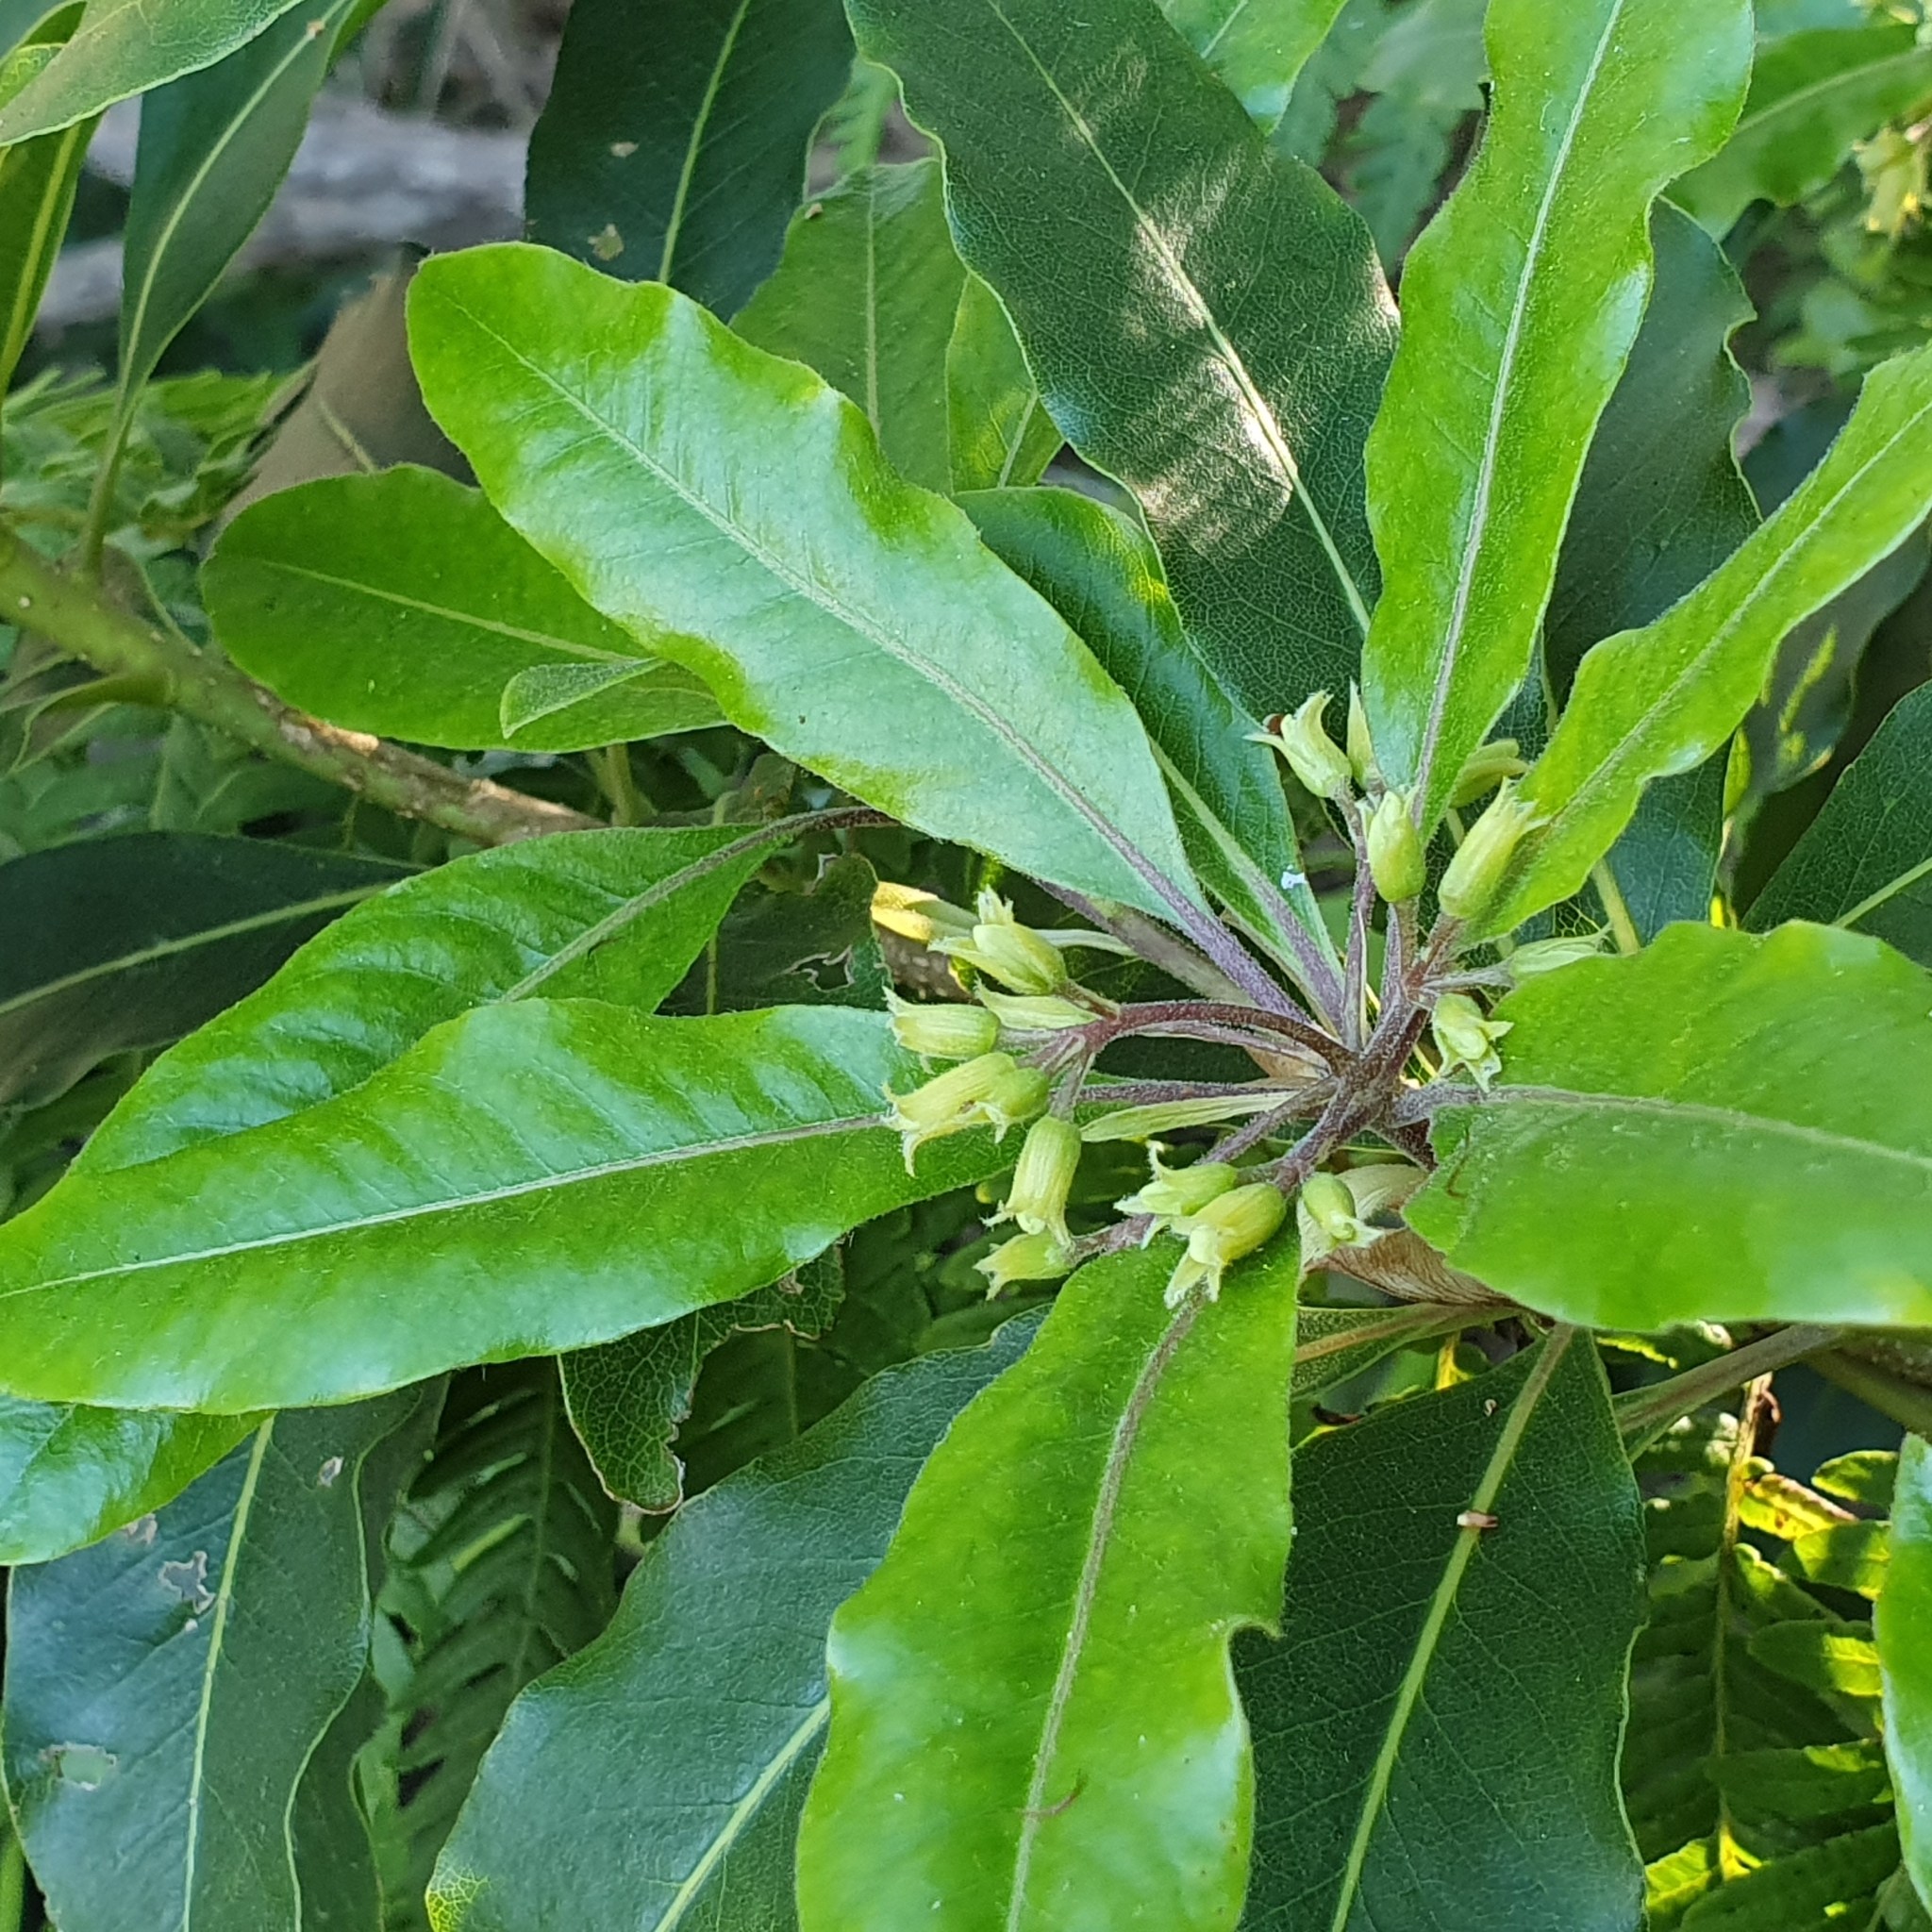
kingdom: Plantae
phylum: Tracheophyta
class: Magnoliopsida
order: Apiales
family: Pittosporaceae
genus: Pittosporum
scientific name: Pittosporum undulatum
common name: Australian cheesewood
